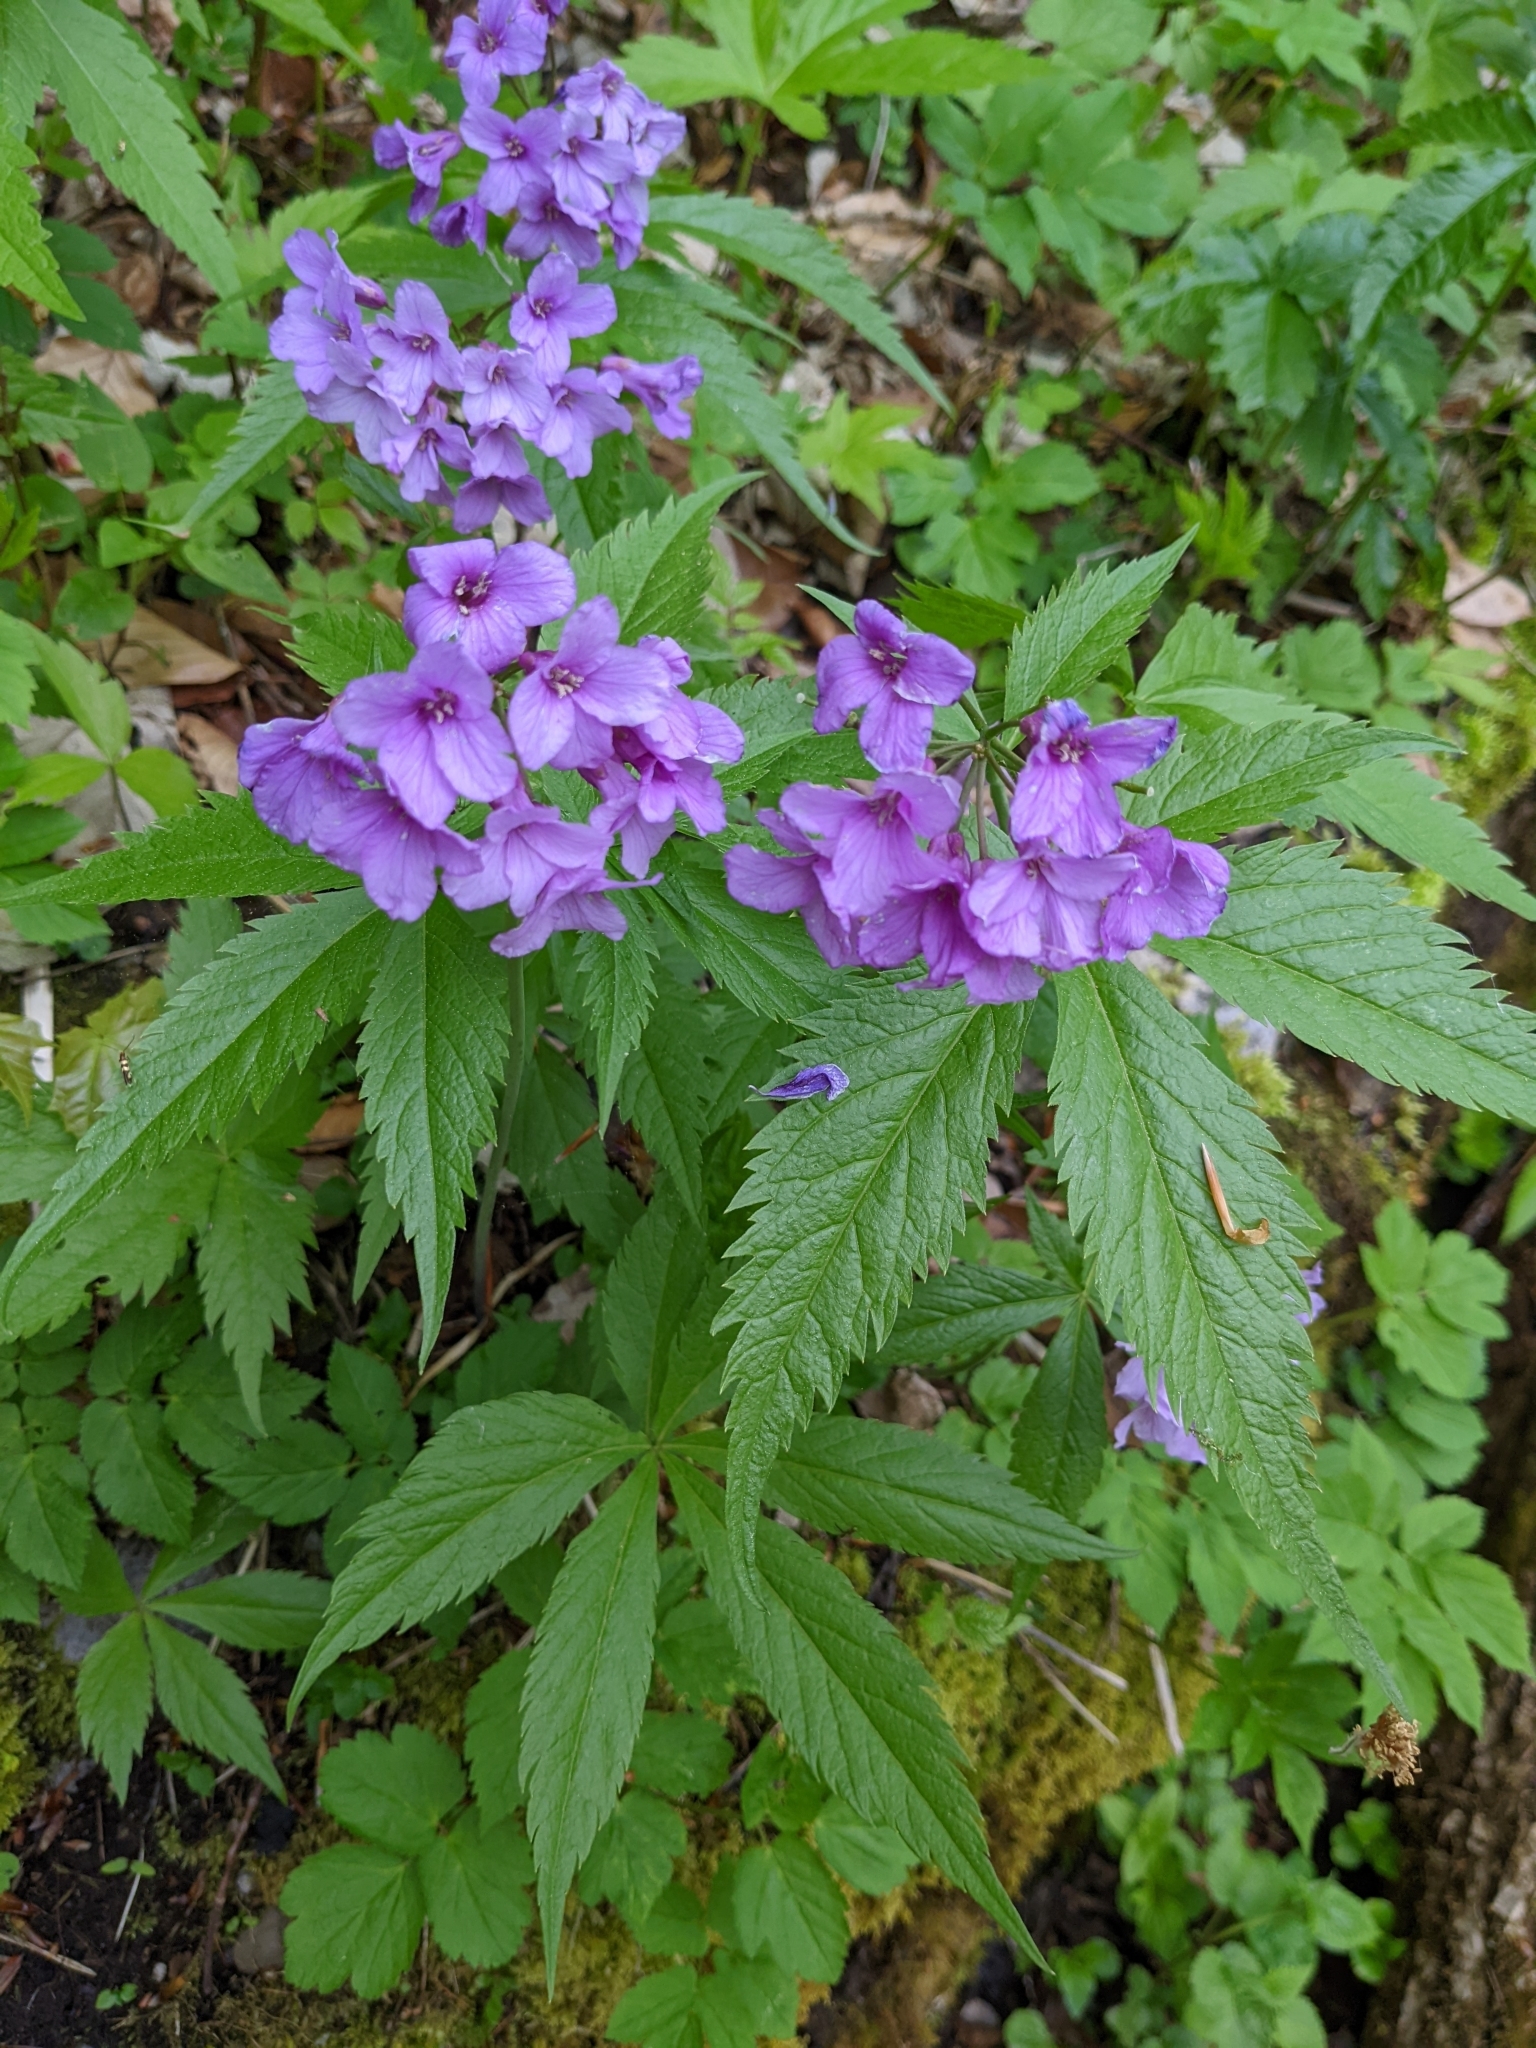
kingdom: Plantae
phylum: Tracheophyta
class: Magnoliopsida
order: Brassicales
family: Brassicaceae
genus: Cardamine
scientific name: Cardamine pentaphyllos
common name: Five-leaflet bitter-cress
